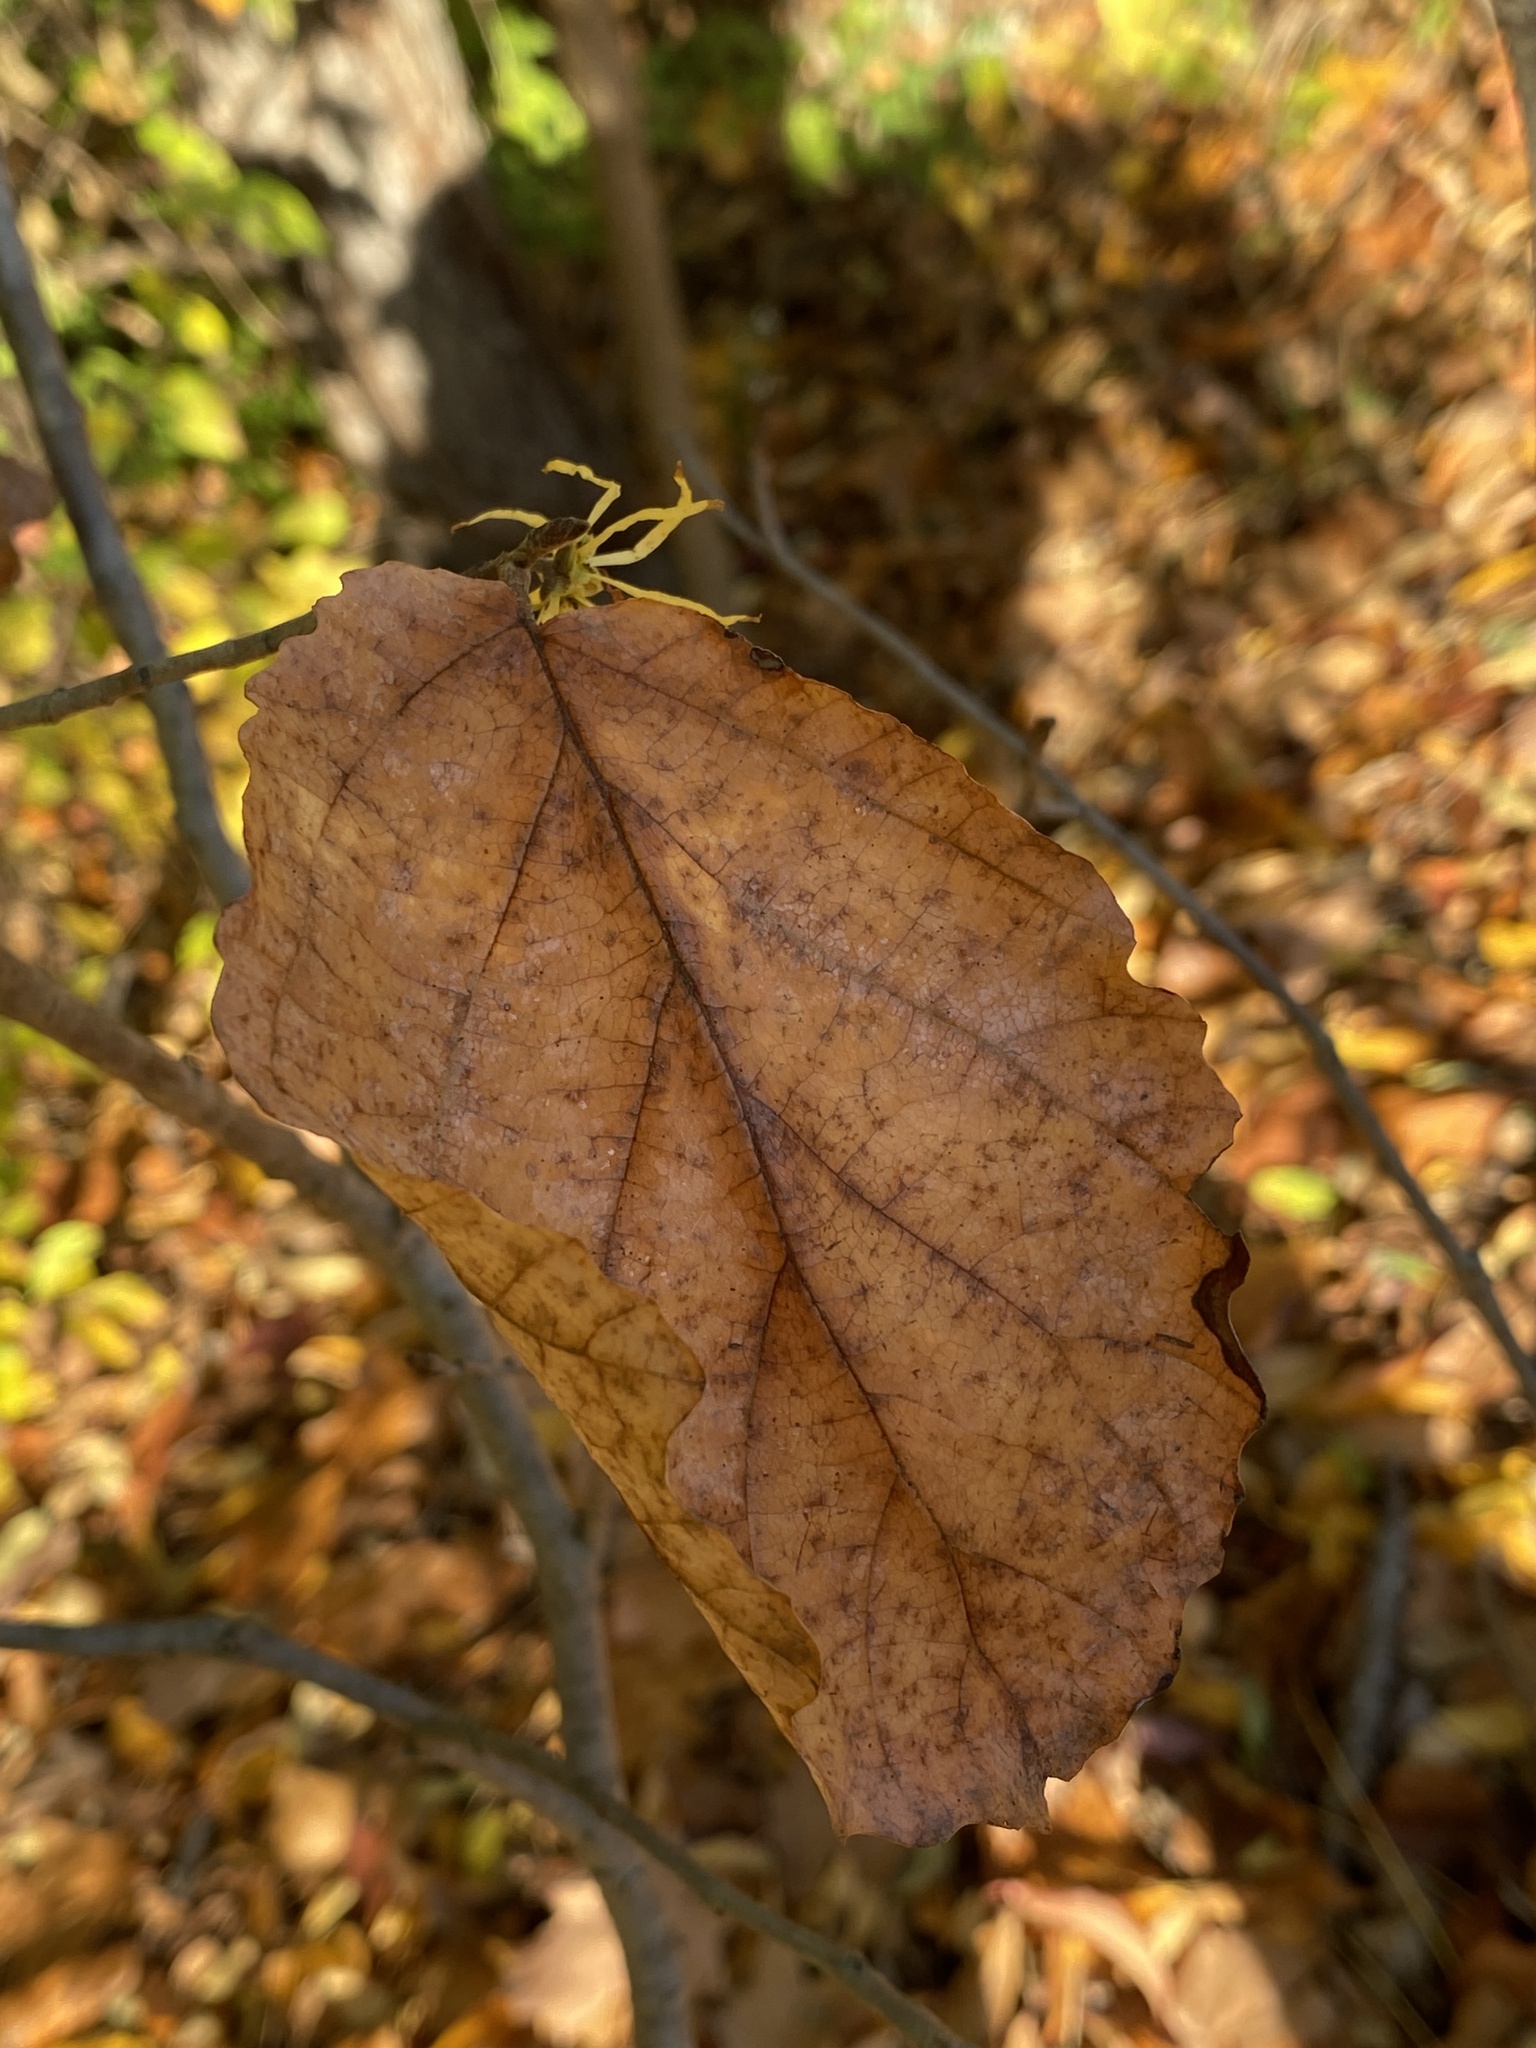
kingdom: Plantae
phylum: Tracheophyta
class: Magnoliopsida
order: Saxifragales
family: Hamamelidaceae
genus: Hamamelis
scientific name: Hamamelis virginiana
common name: Witch-hazel
